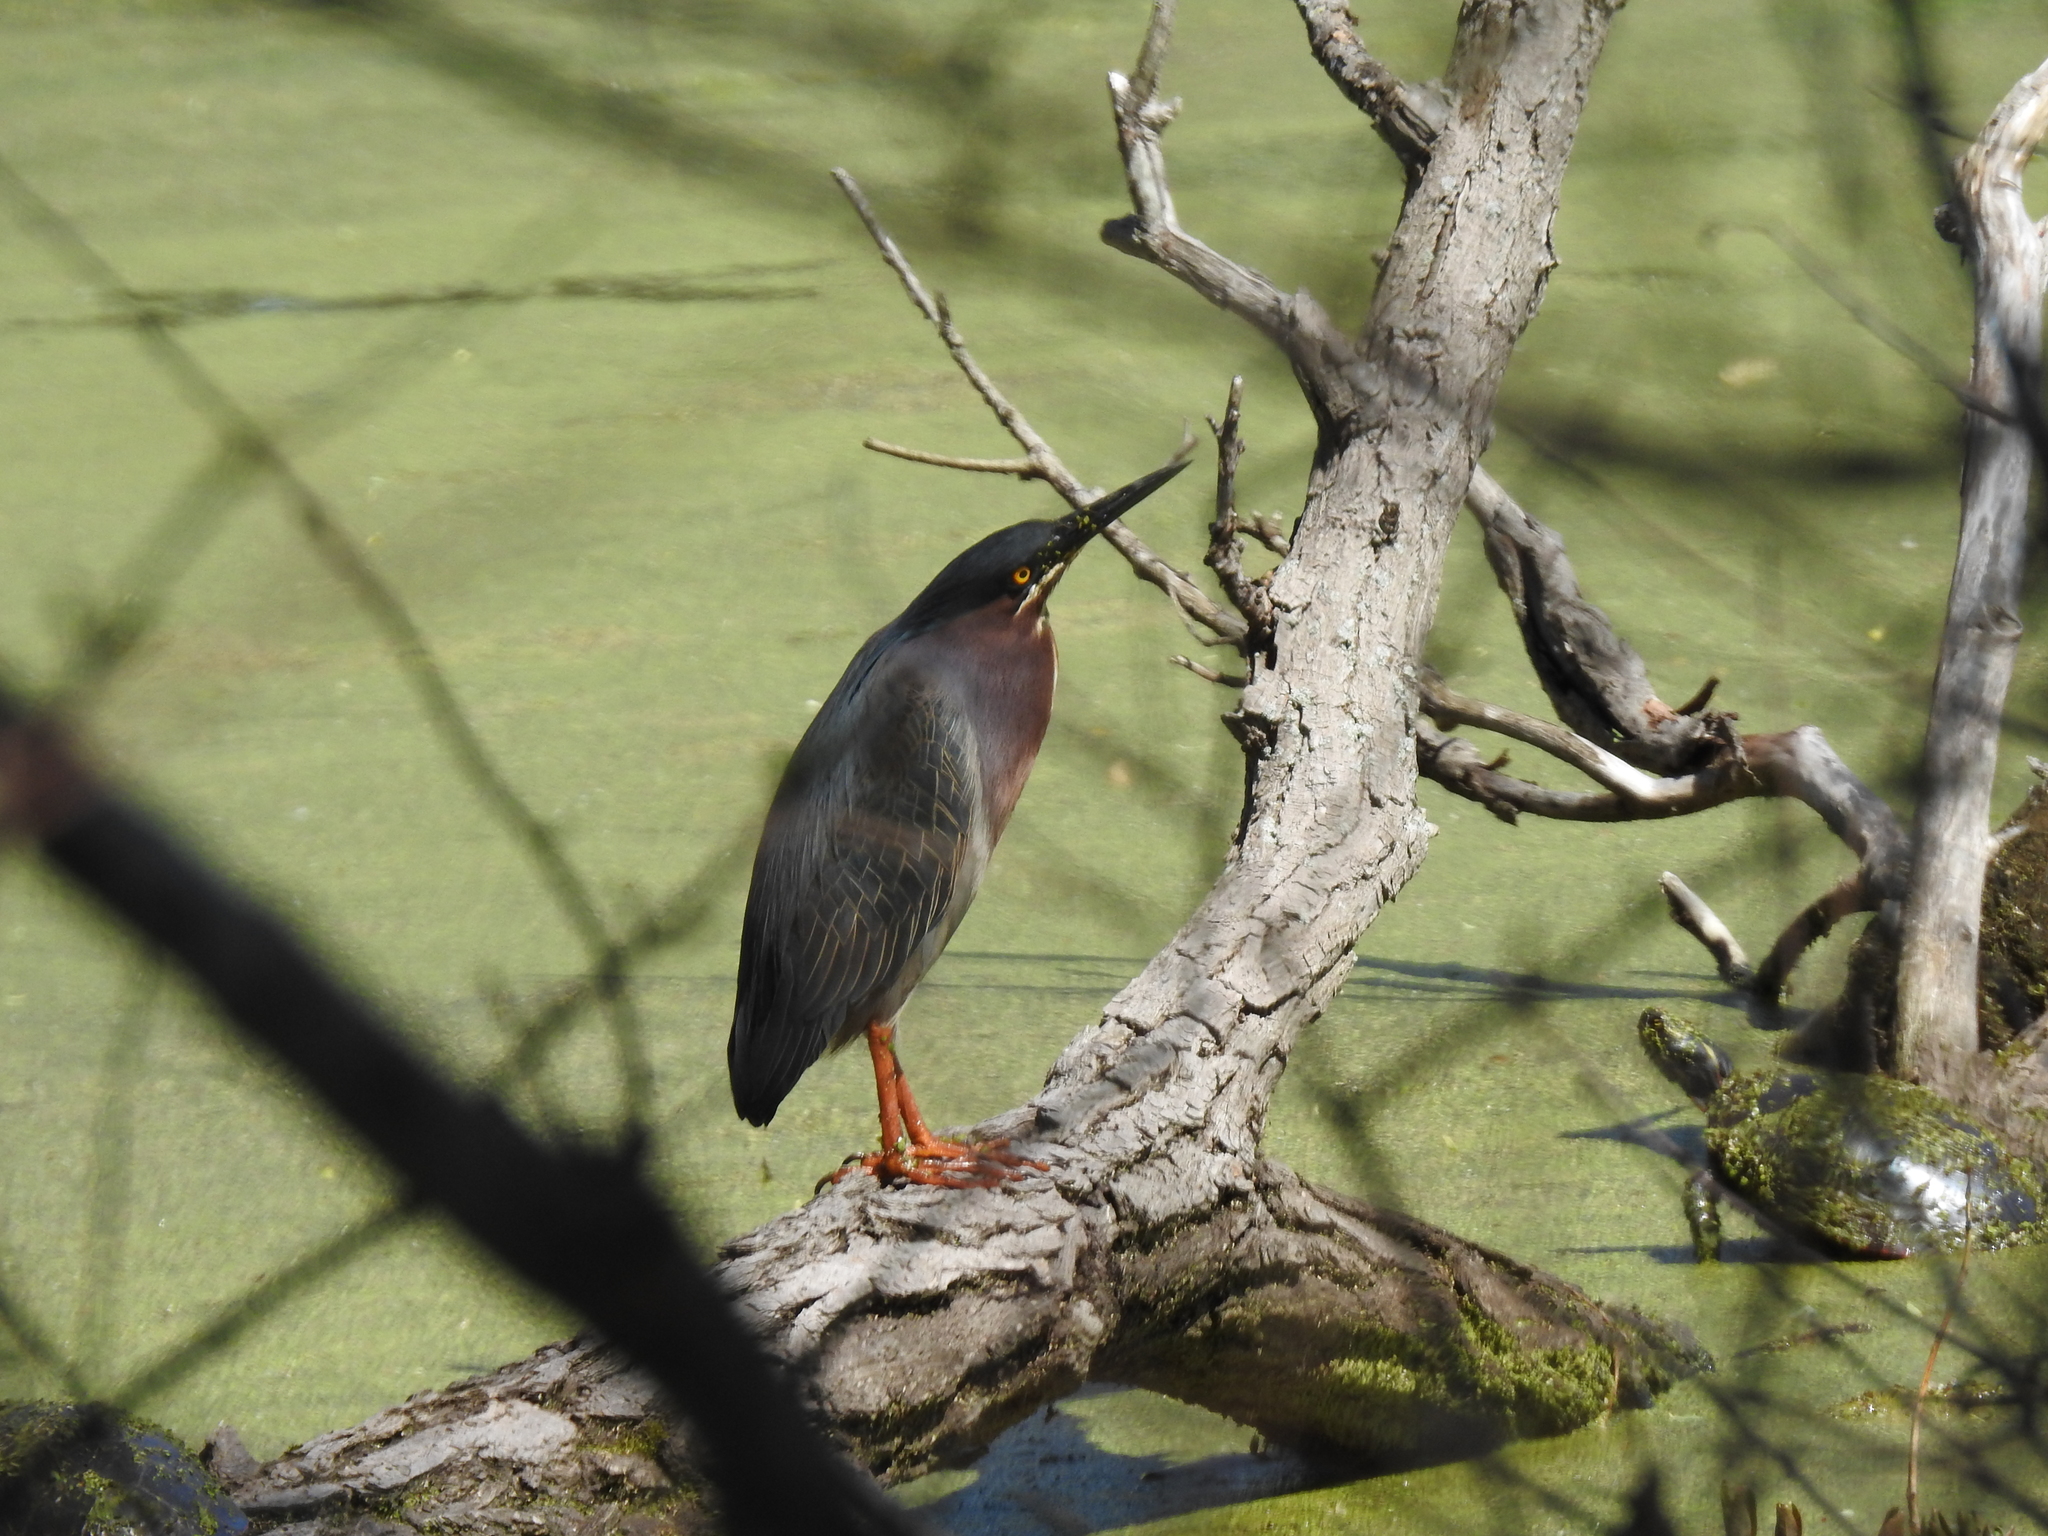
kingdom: Animalia
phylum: Chordata
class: Aves
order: Pelecaniformes
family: Ardeidae
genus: Butorides
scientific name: Butorides virescens
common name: Green heron
